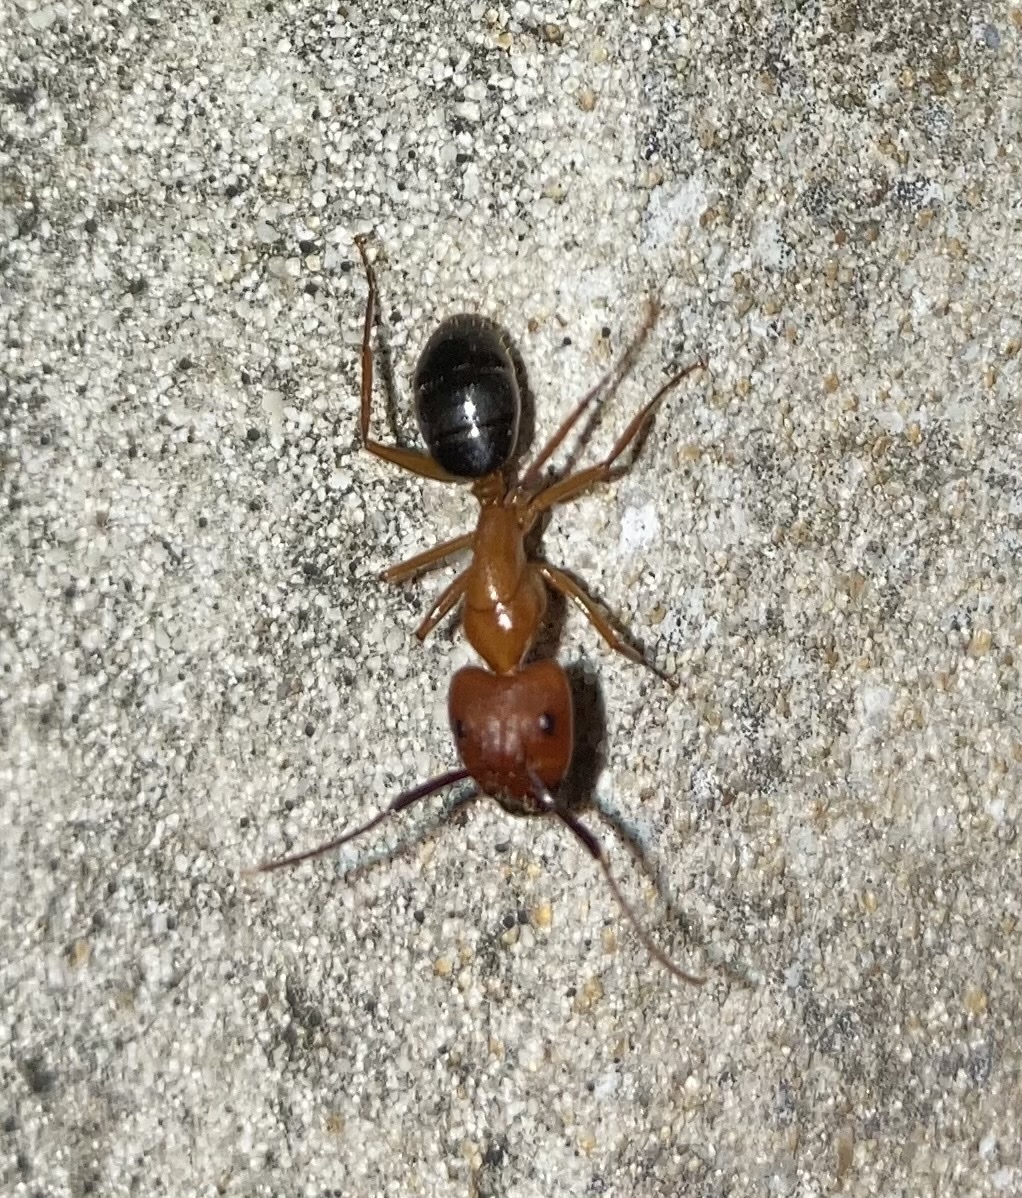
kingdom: Animalia
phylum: Arthropoda
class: Insecta
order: Hymenoptera
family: Formicidae
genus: Camponotus
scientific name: Camponotus floridanus
